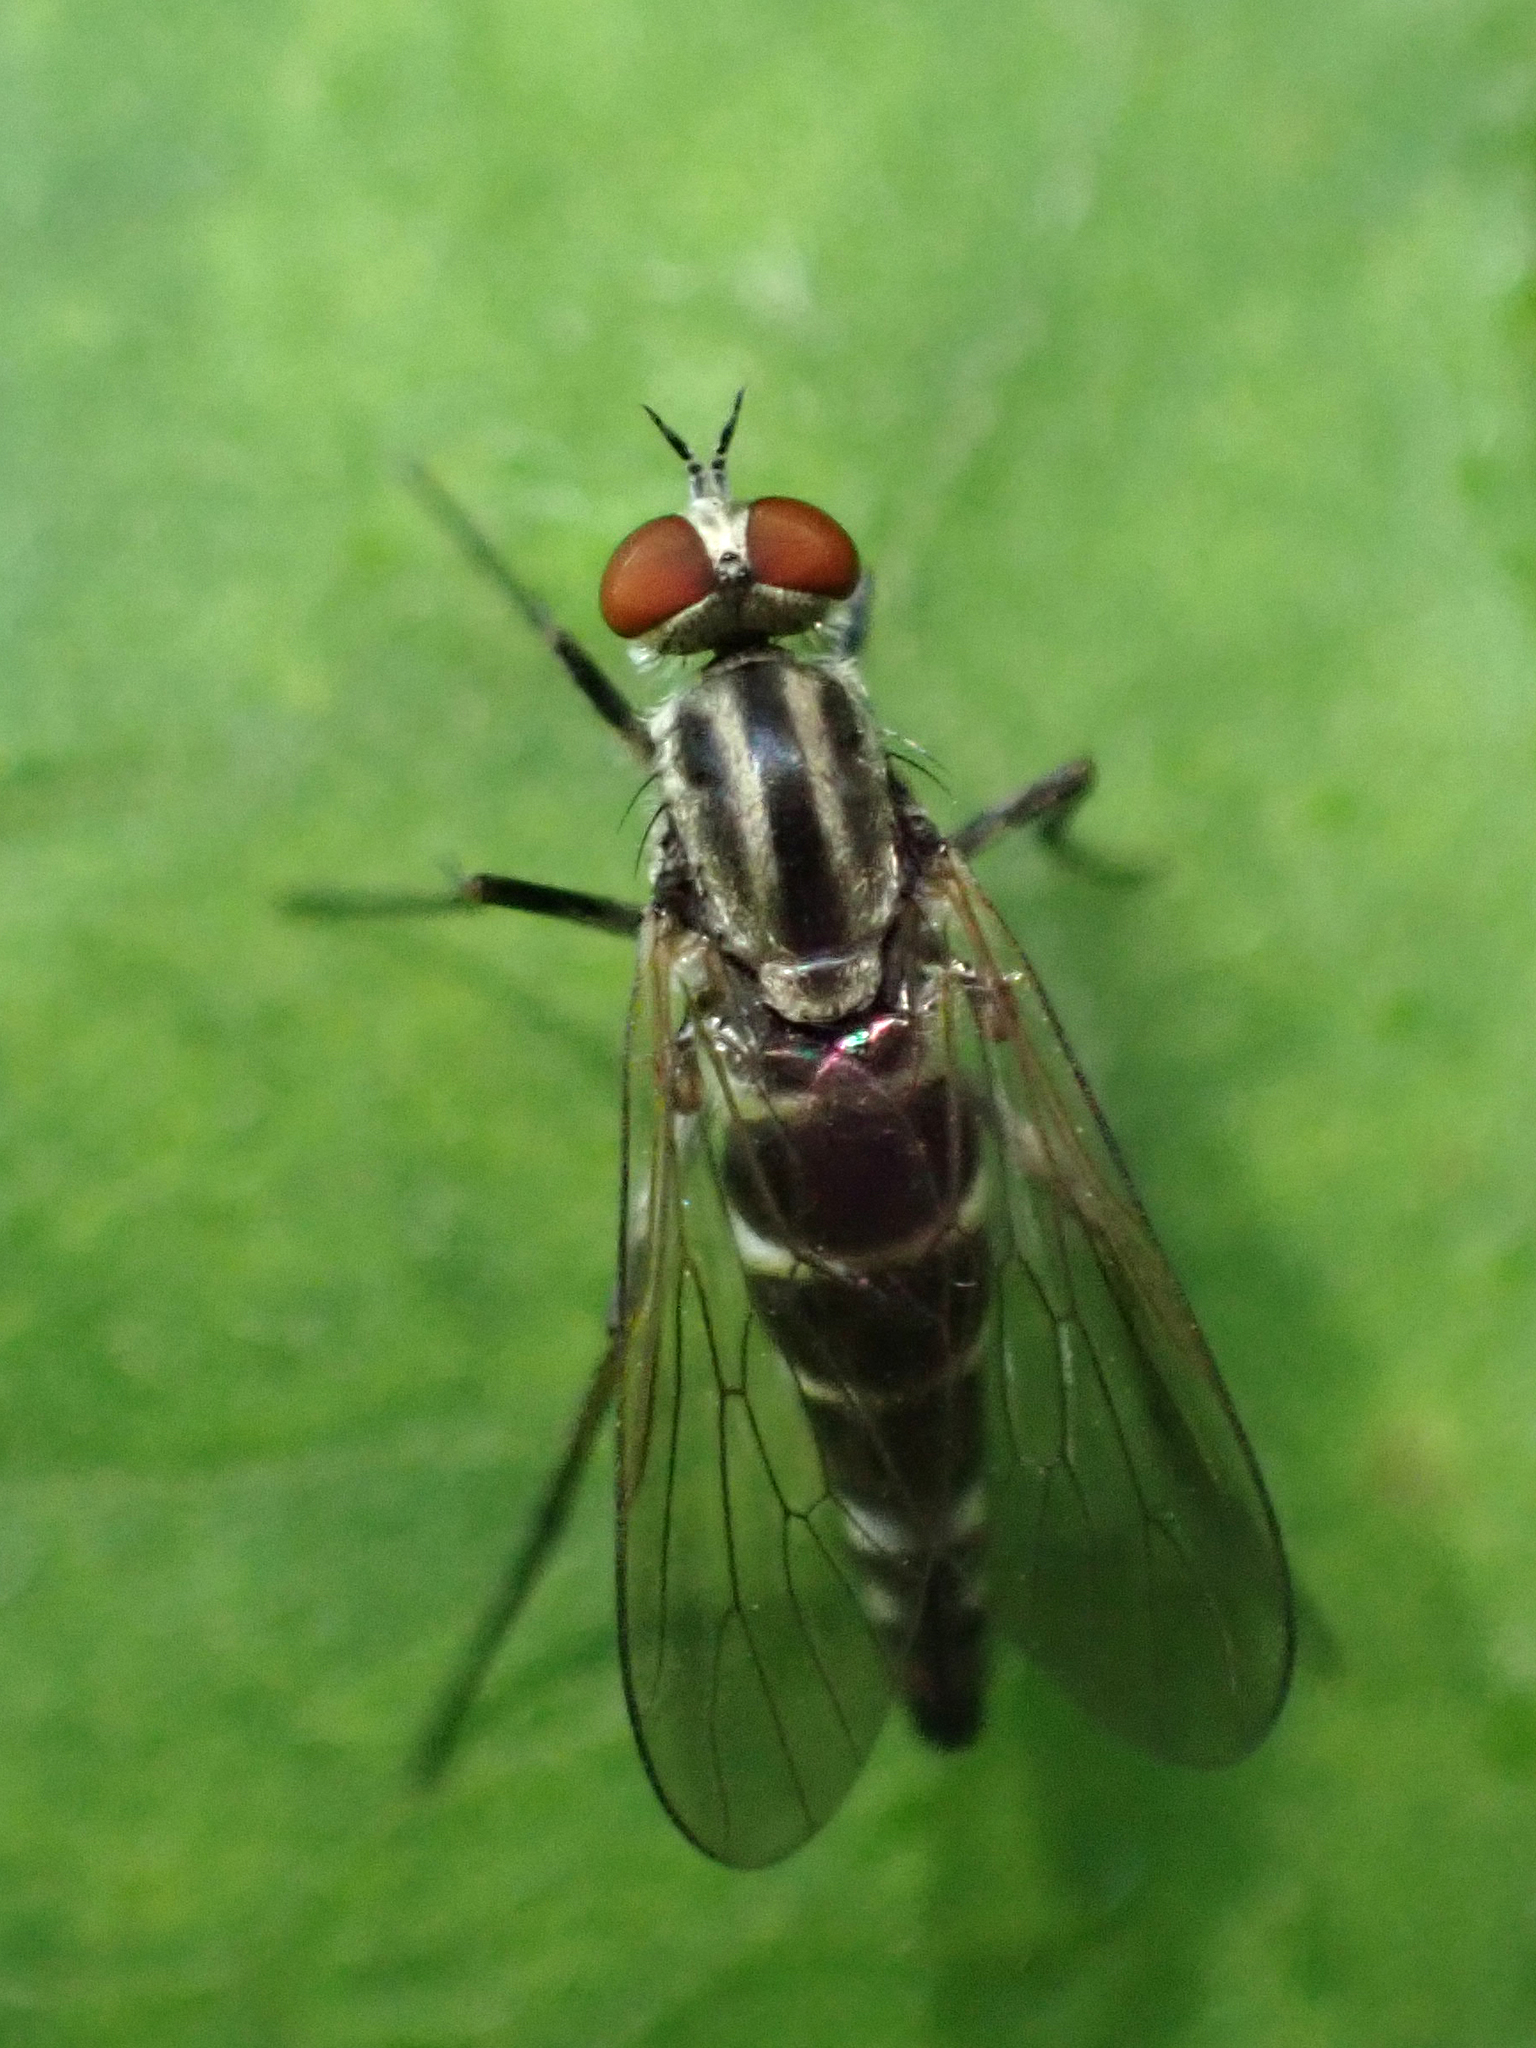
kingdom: Animalia
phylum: Arthropoda
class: Insecta
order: Diptera
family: Therevidae
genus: Penniverpa
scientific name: Penniverpa festina
